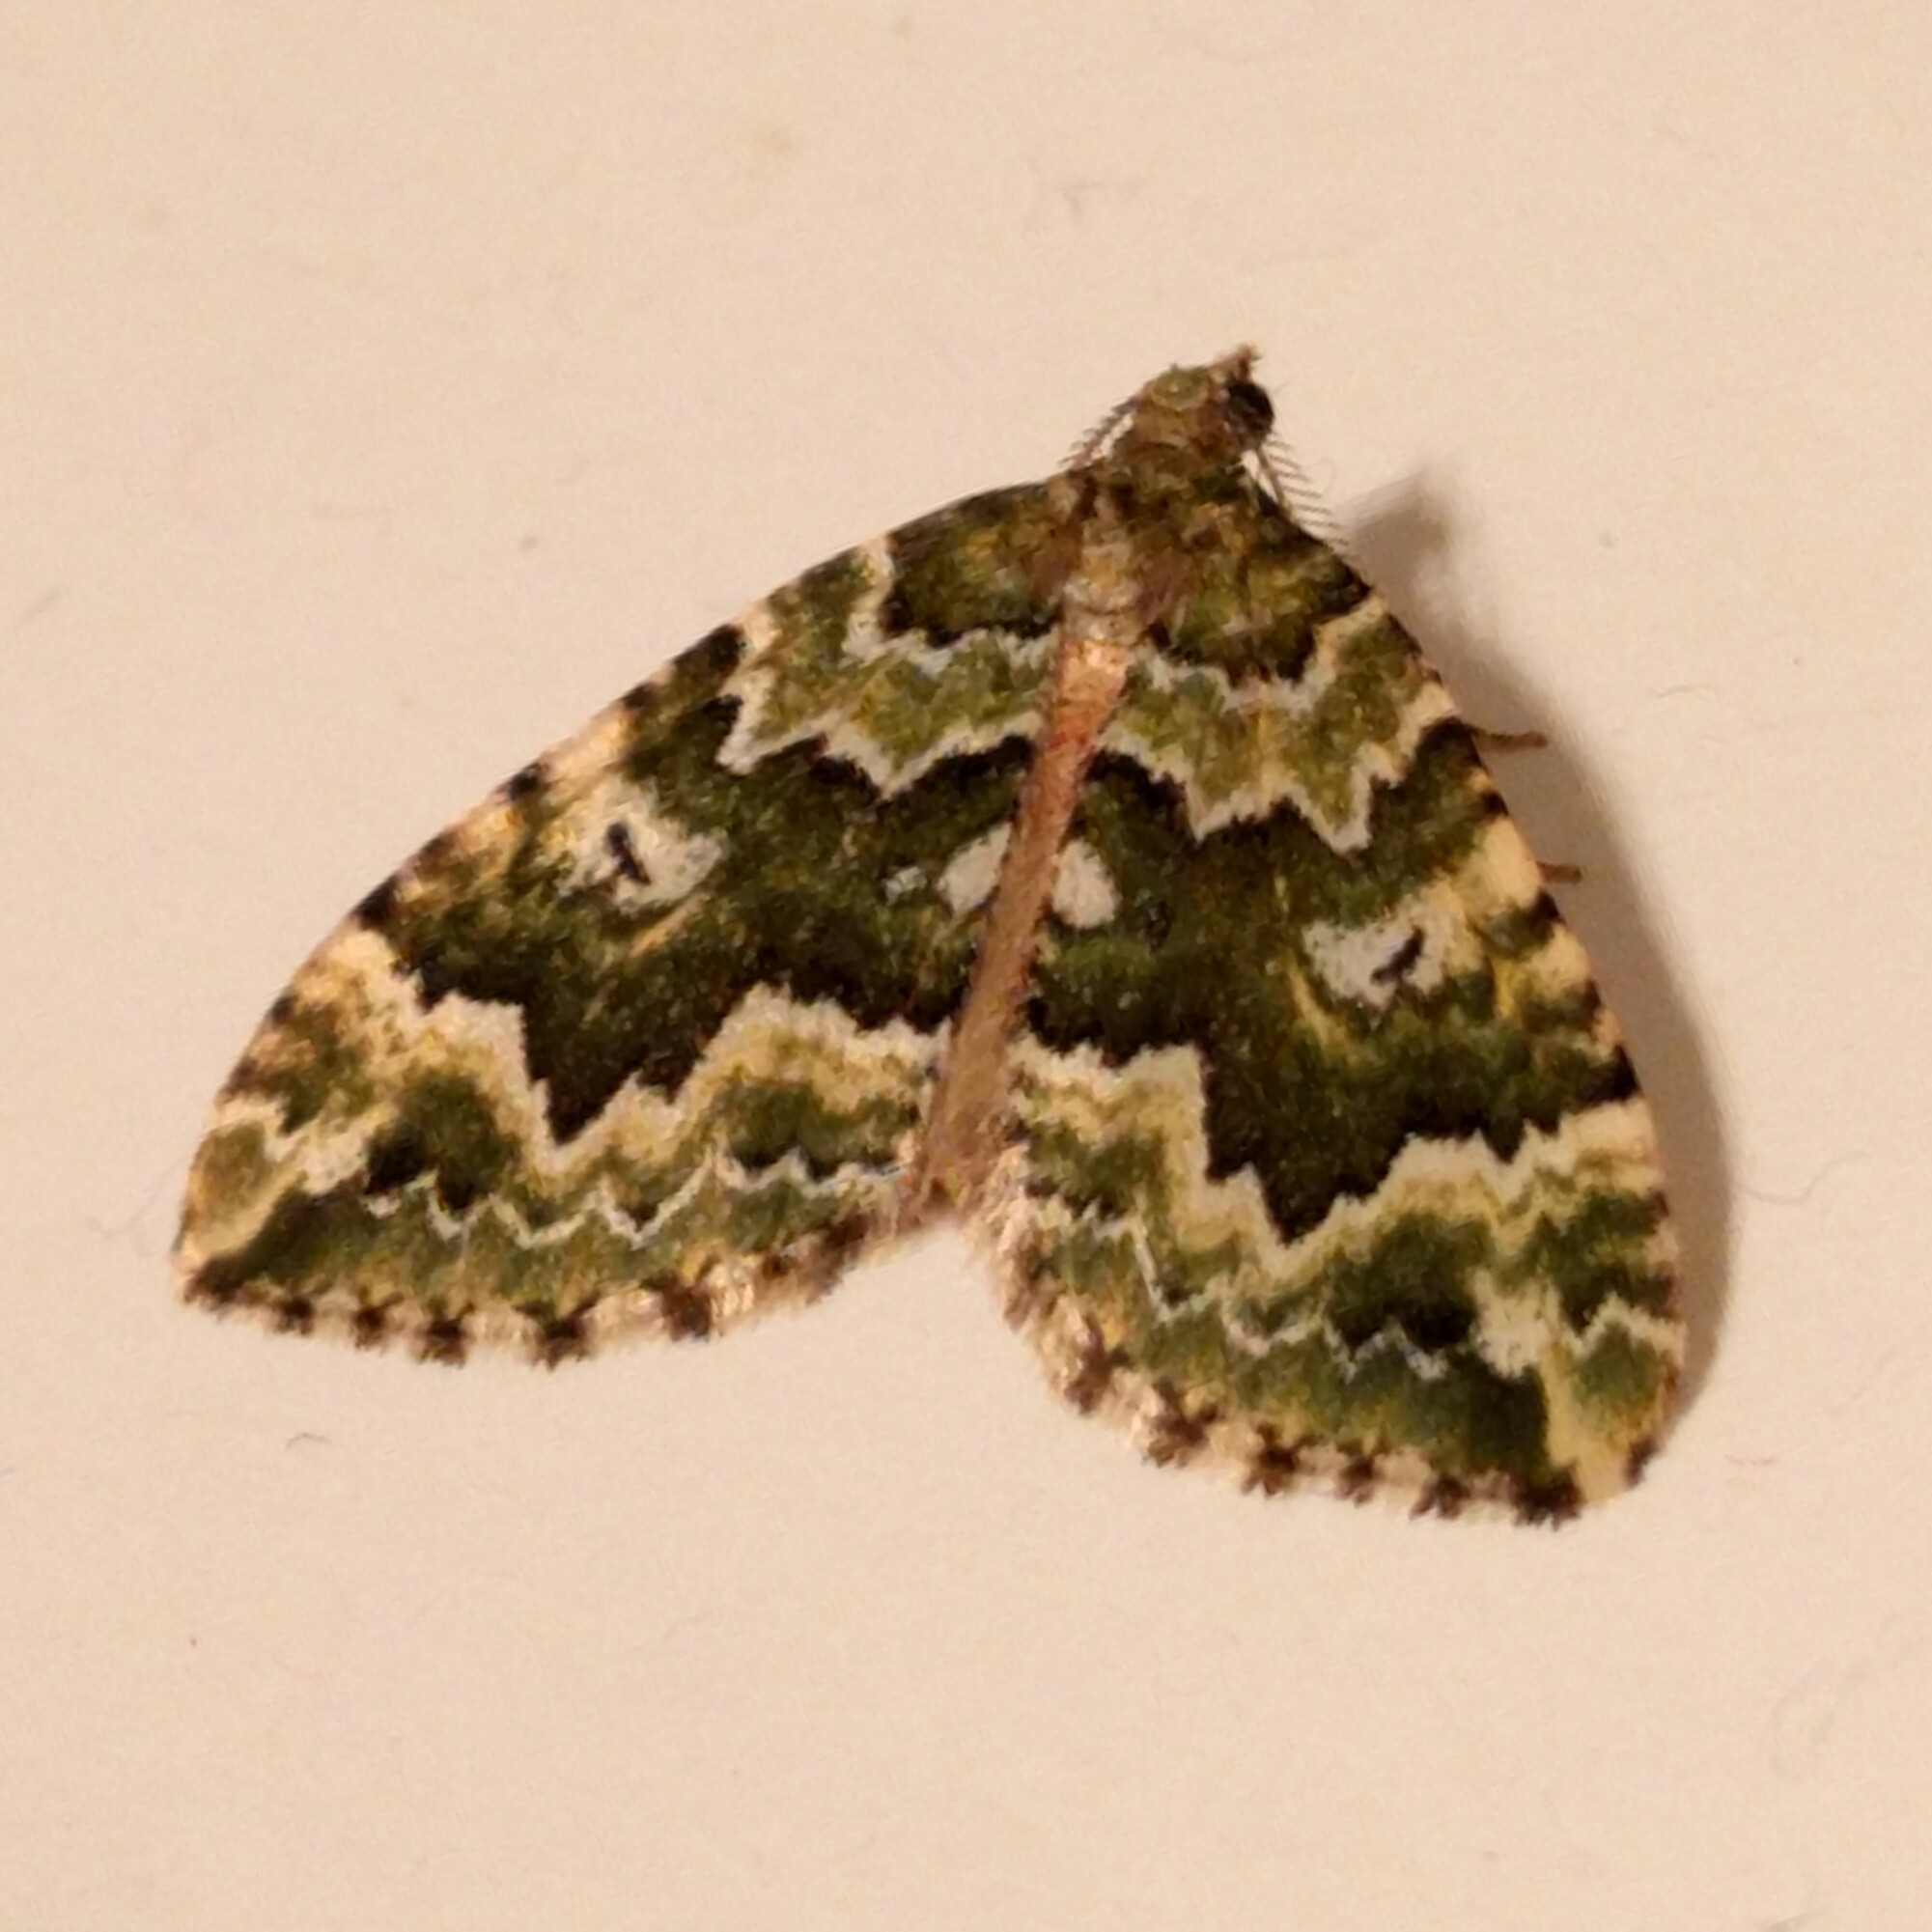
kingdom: Animalia
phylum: Arthropoda
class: Insecta
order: Lepidoptera
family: Geometridae
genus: Asaphodes
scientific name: Asaphodes beata
